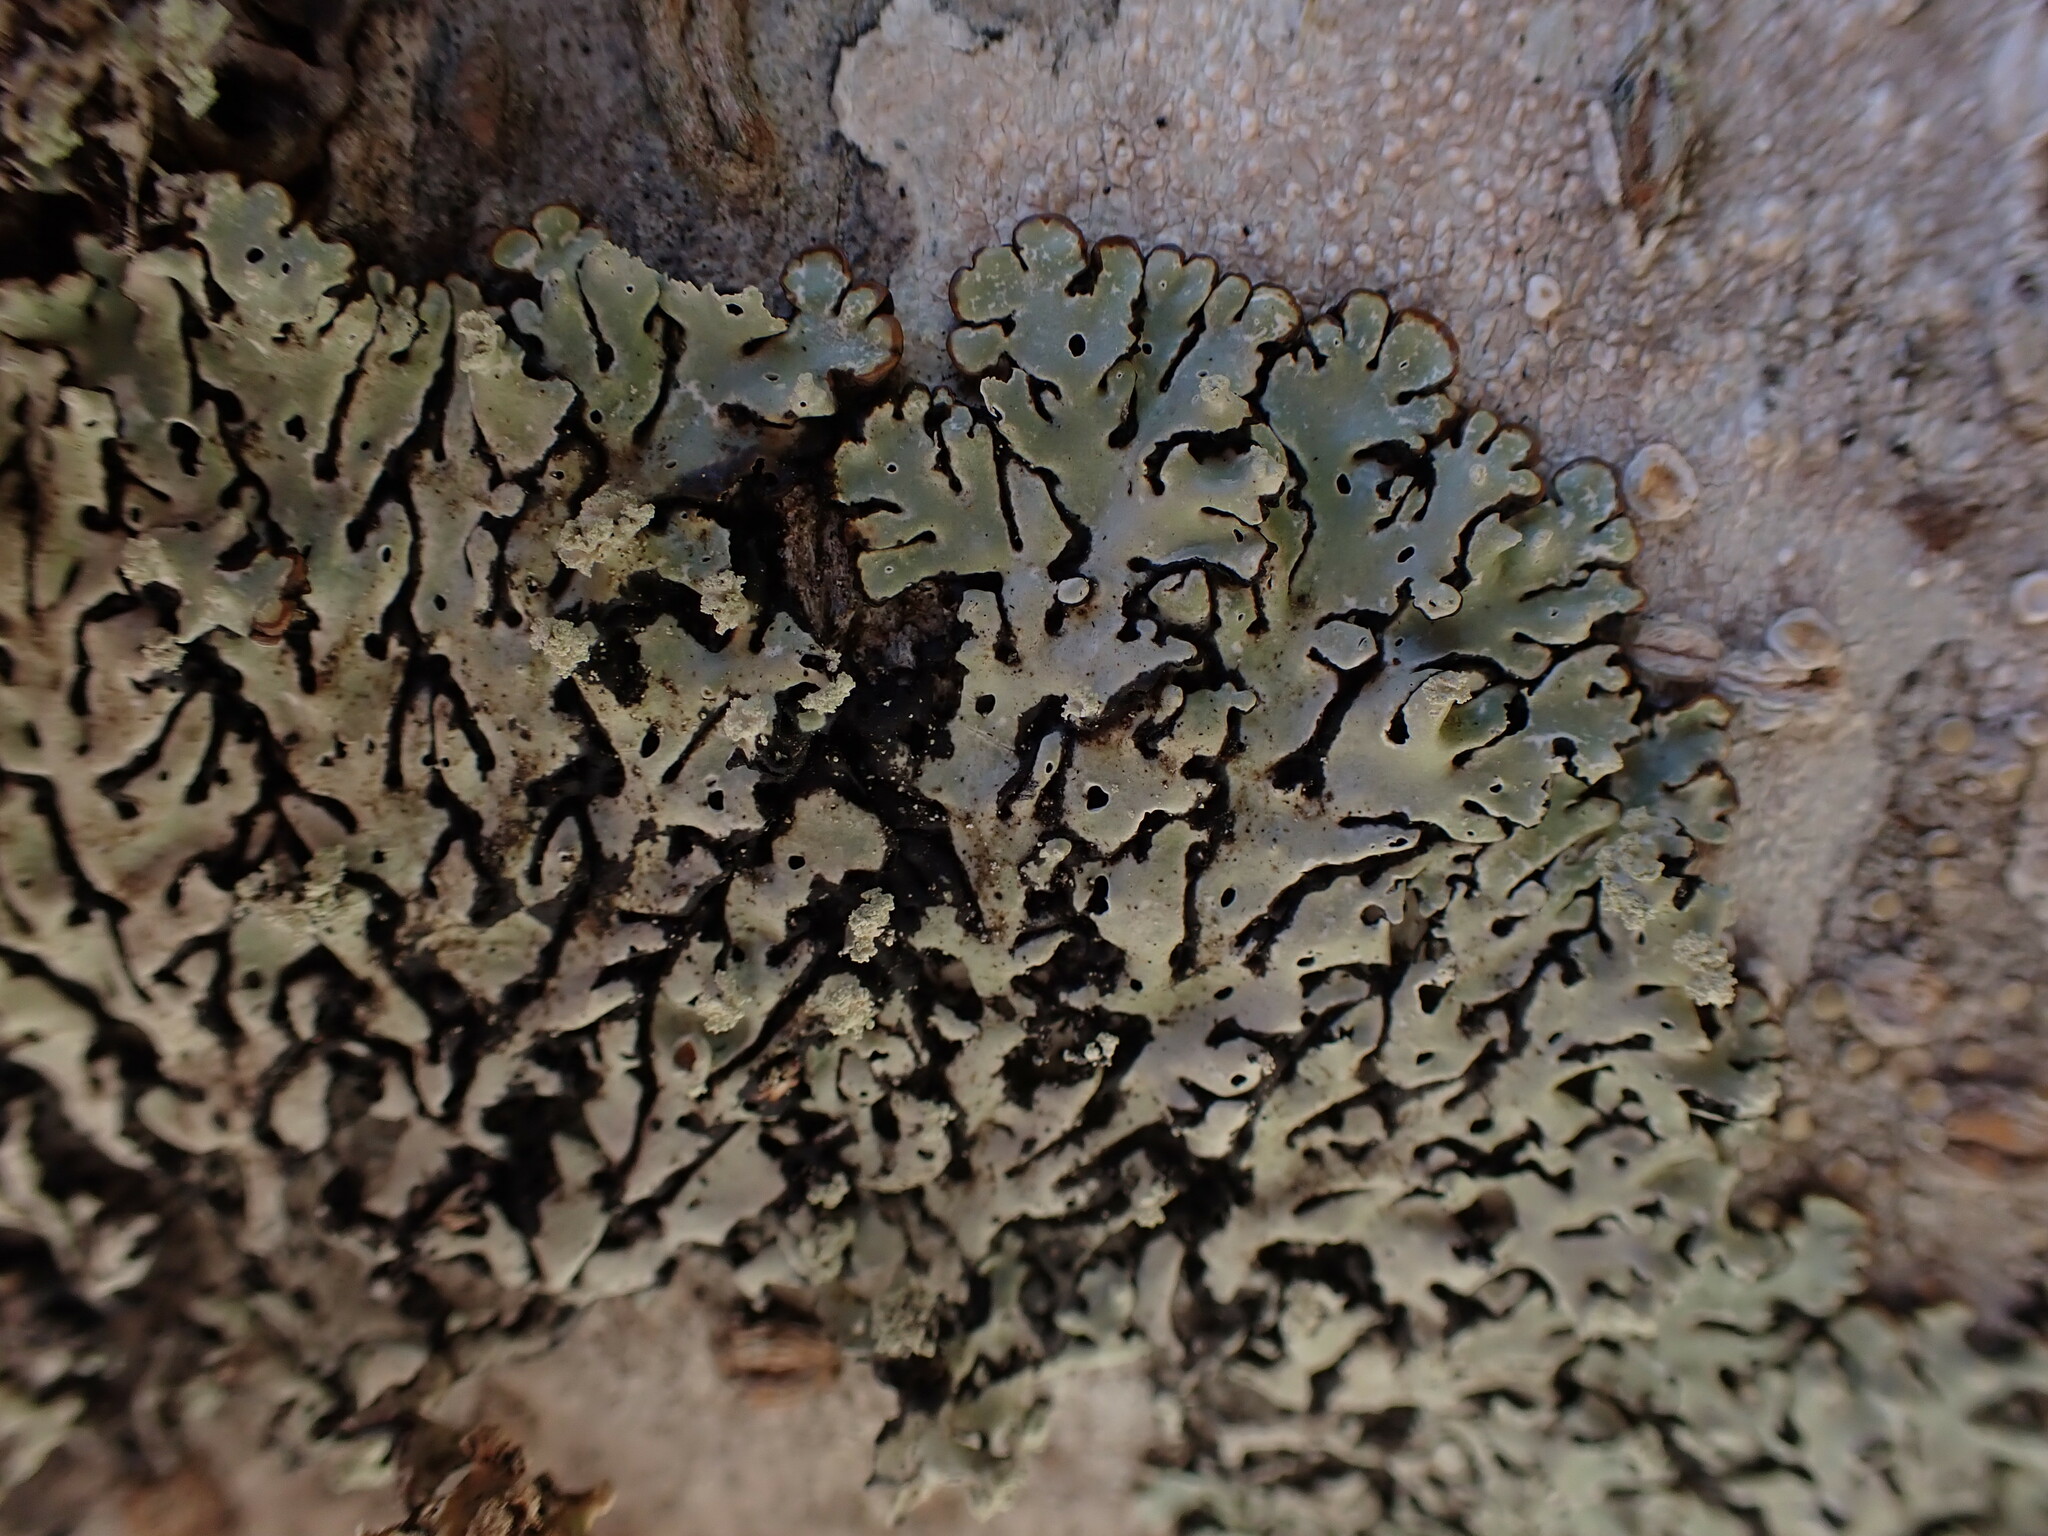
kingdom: Fungi
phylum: Ascomycota
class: Lecanoromycetes
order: Lecanorales
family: Parmeliaceae
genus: Menegazzia
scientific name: Menegazzia terebrata
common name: Magic treeflute lichen
